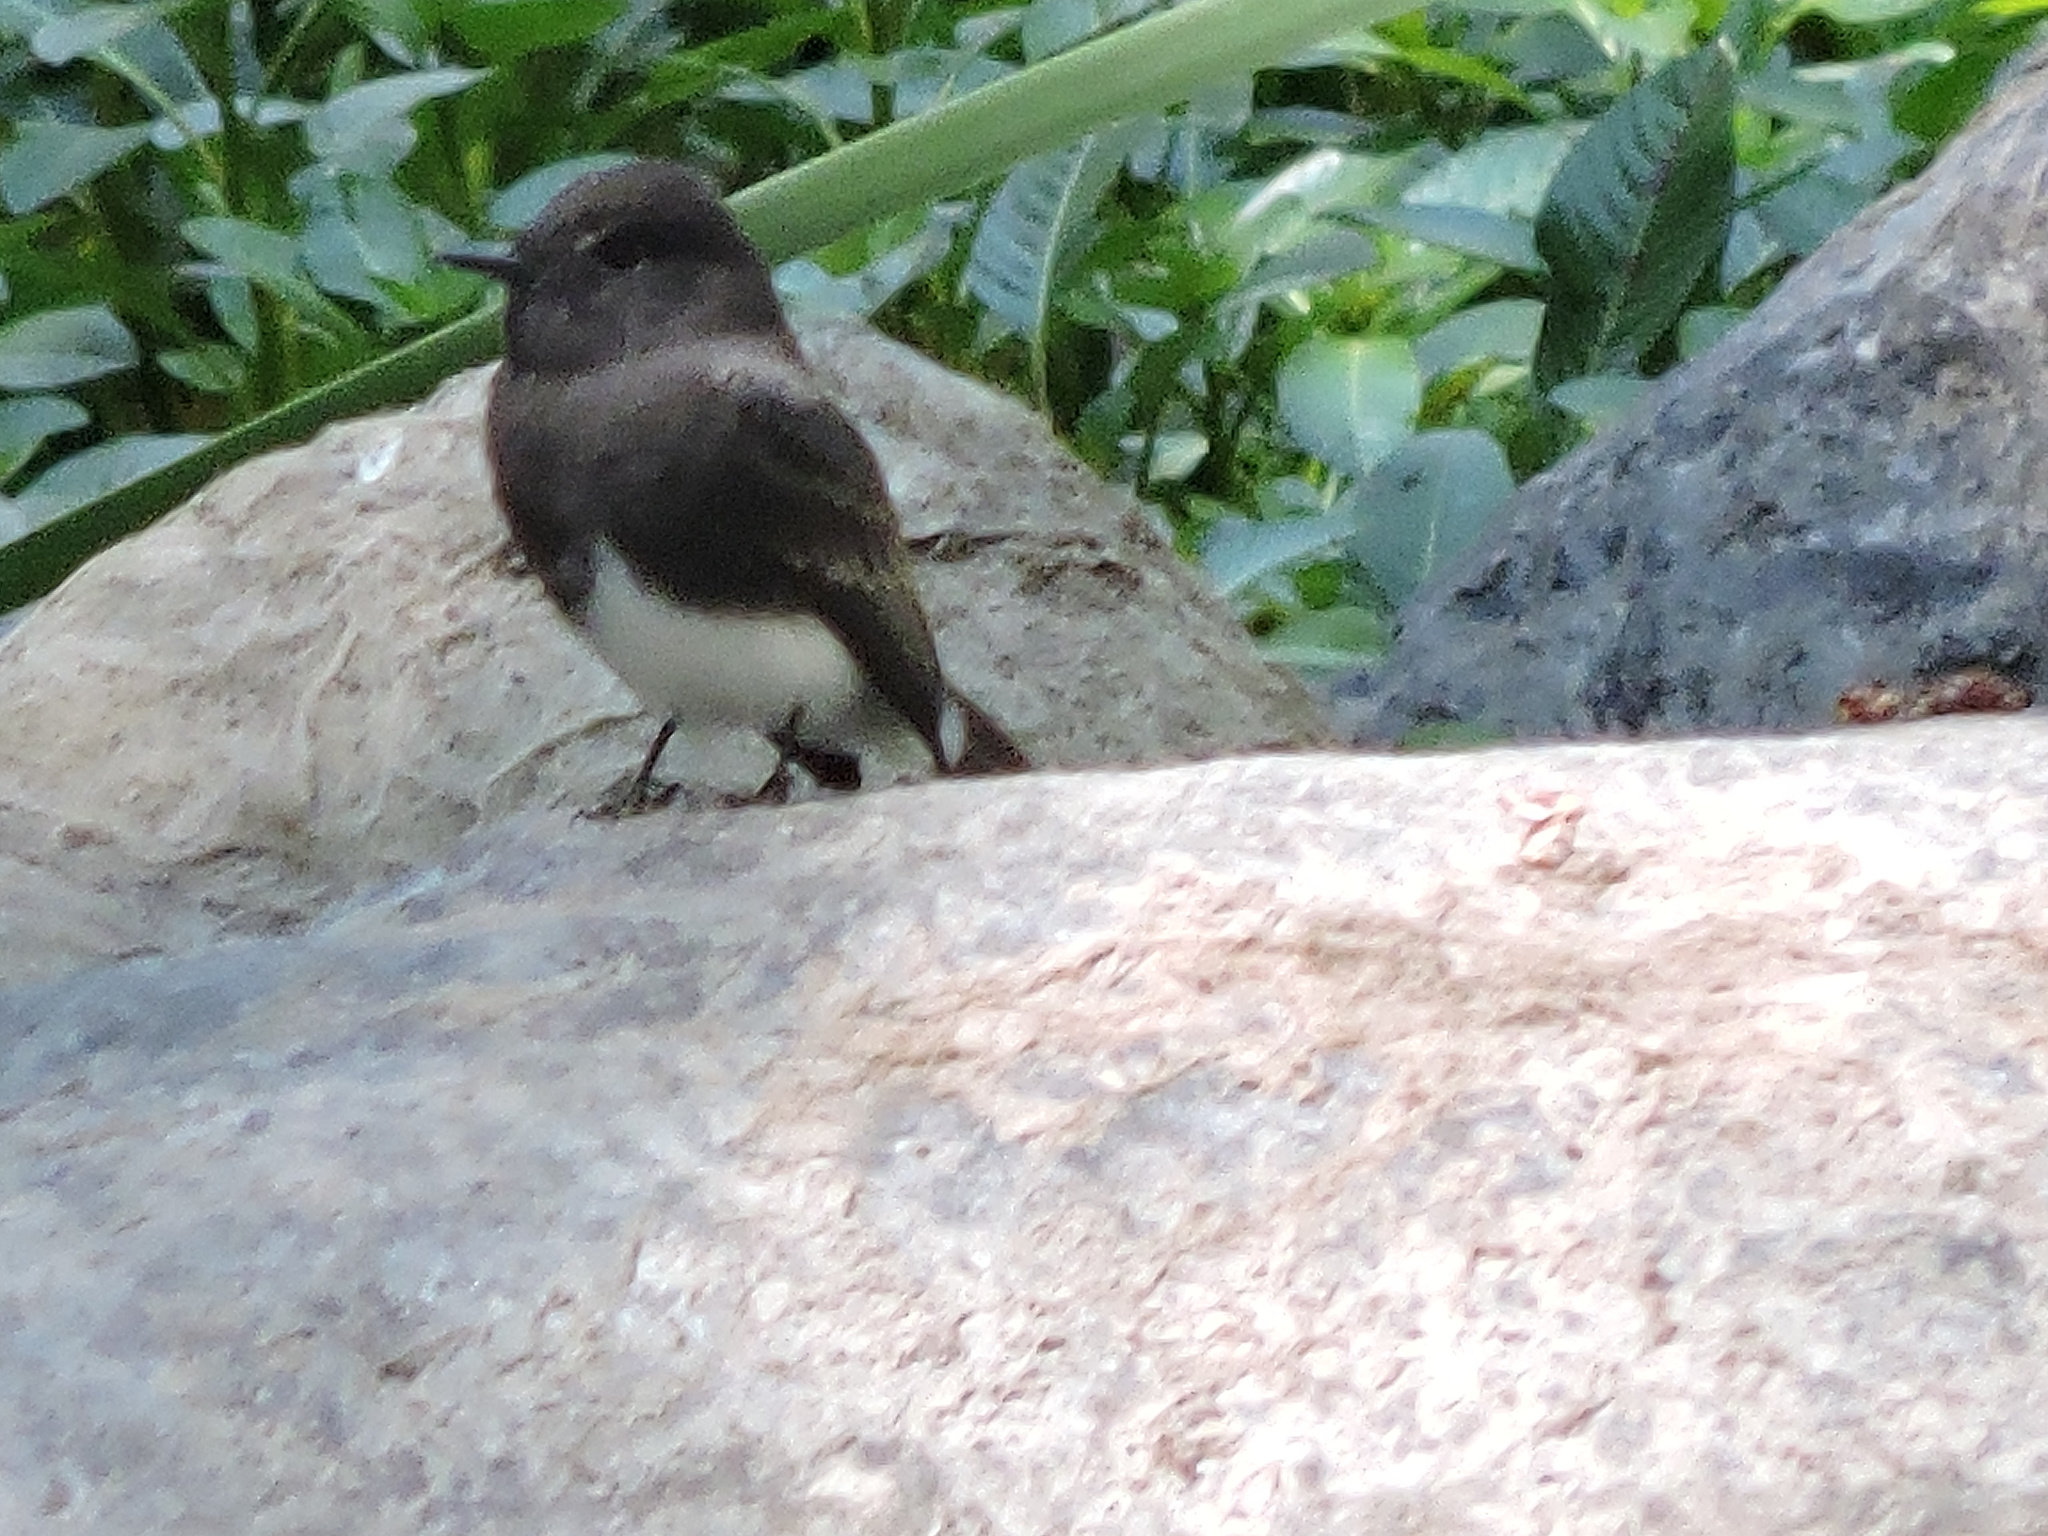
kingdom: Animalia
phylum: Chordata
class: Aves
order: Passeriformes
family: Tyrannidae
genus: Sayornis
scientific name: Sayornis nigricans
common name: Black phoebe
